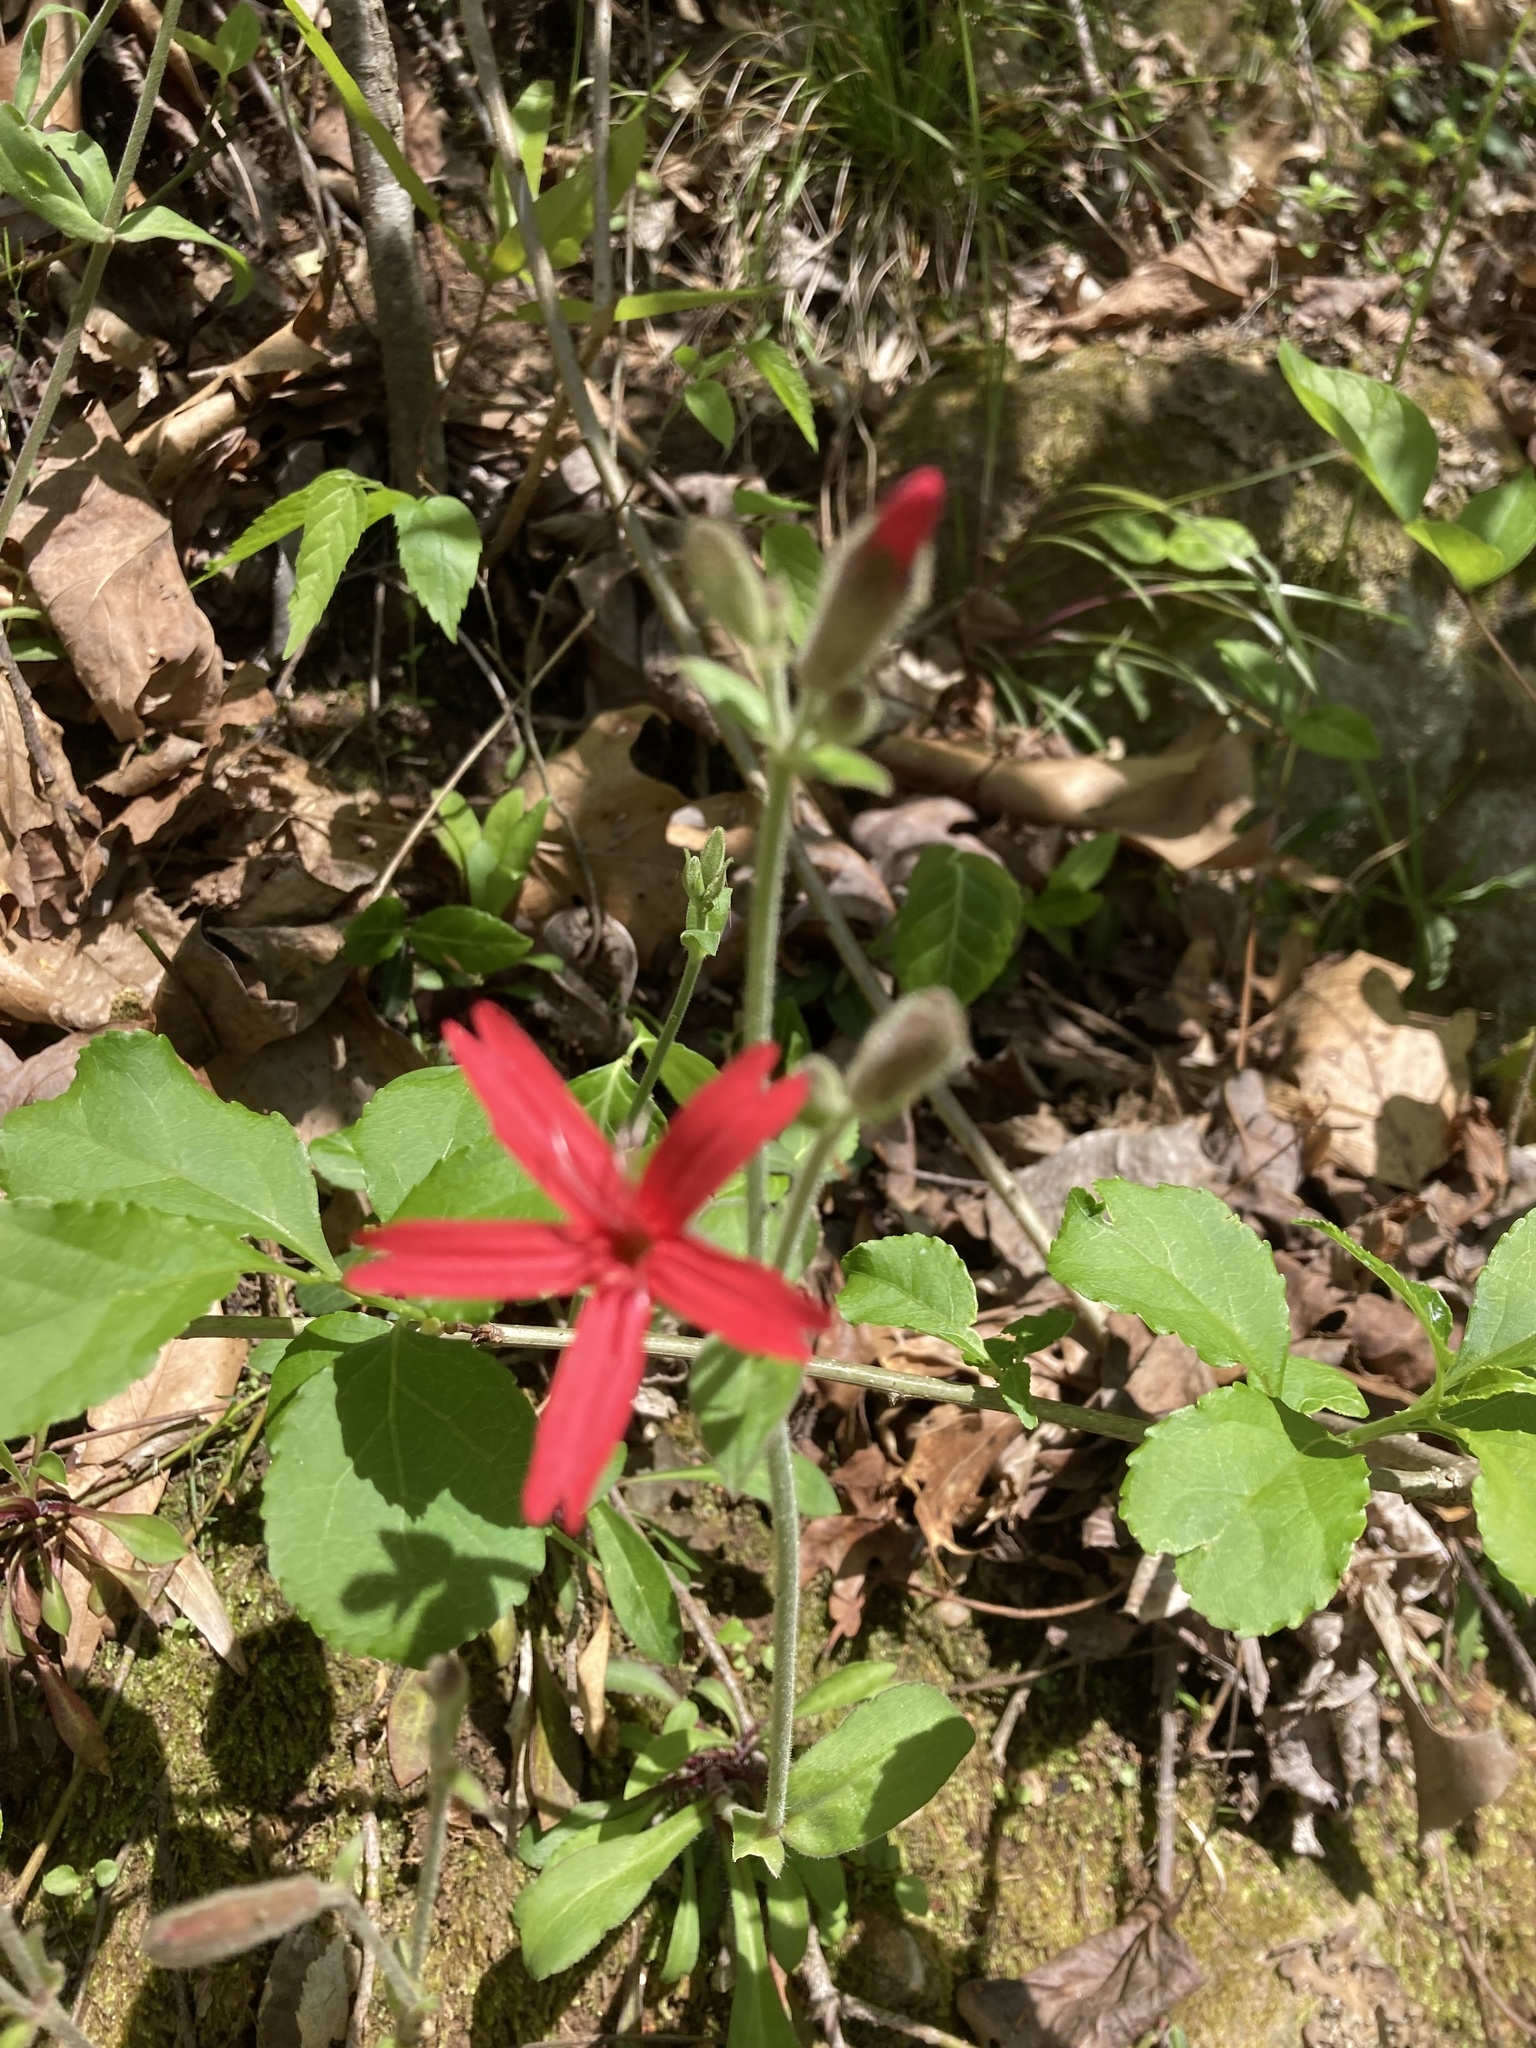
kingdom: Plantae
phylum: Tracheophyta
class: Magnoliopsida
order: Caryophyllales
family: Caryophyllaceae
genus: Silene
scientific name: Silene virginica
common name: Fire-pink
